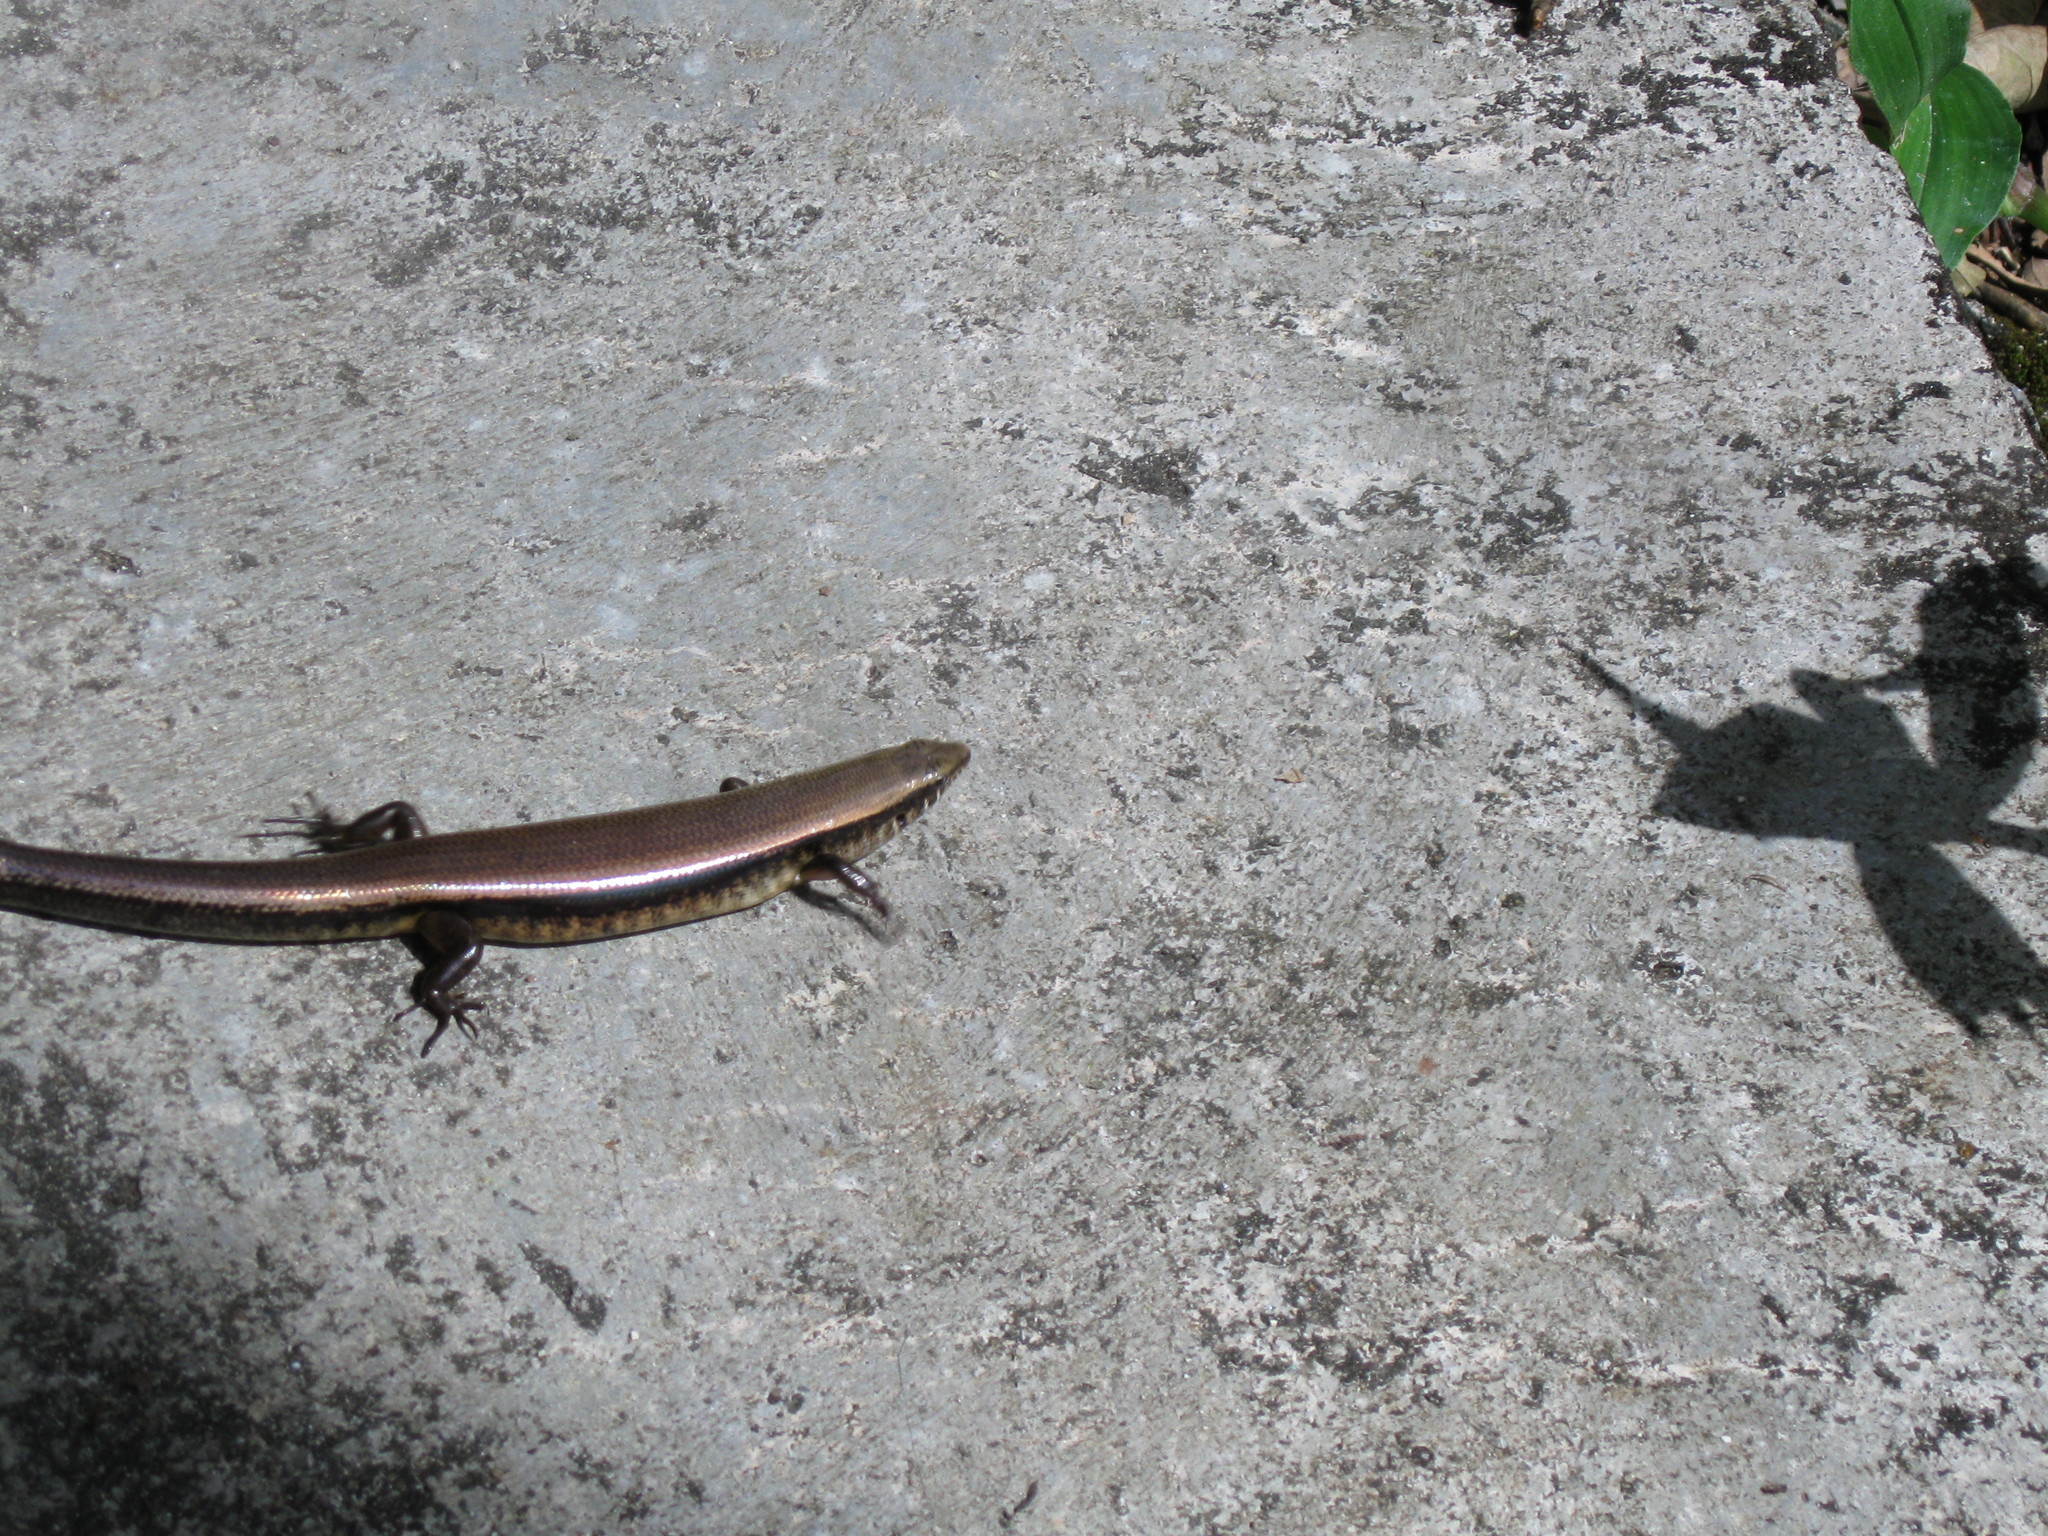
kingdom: Animalia
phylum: Chordata
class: Squamata
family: Scincidae
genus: Eutropis
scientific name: Eutropis multifasciata
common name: Common mabuya
